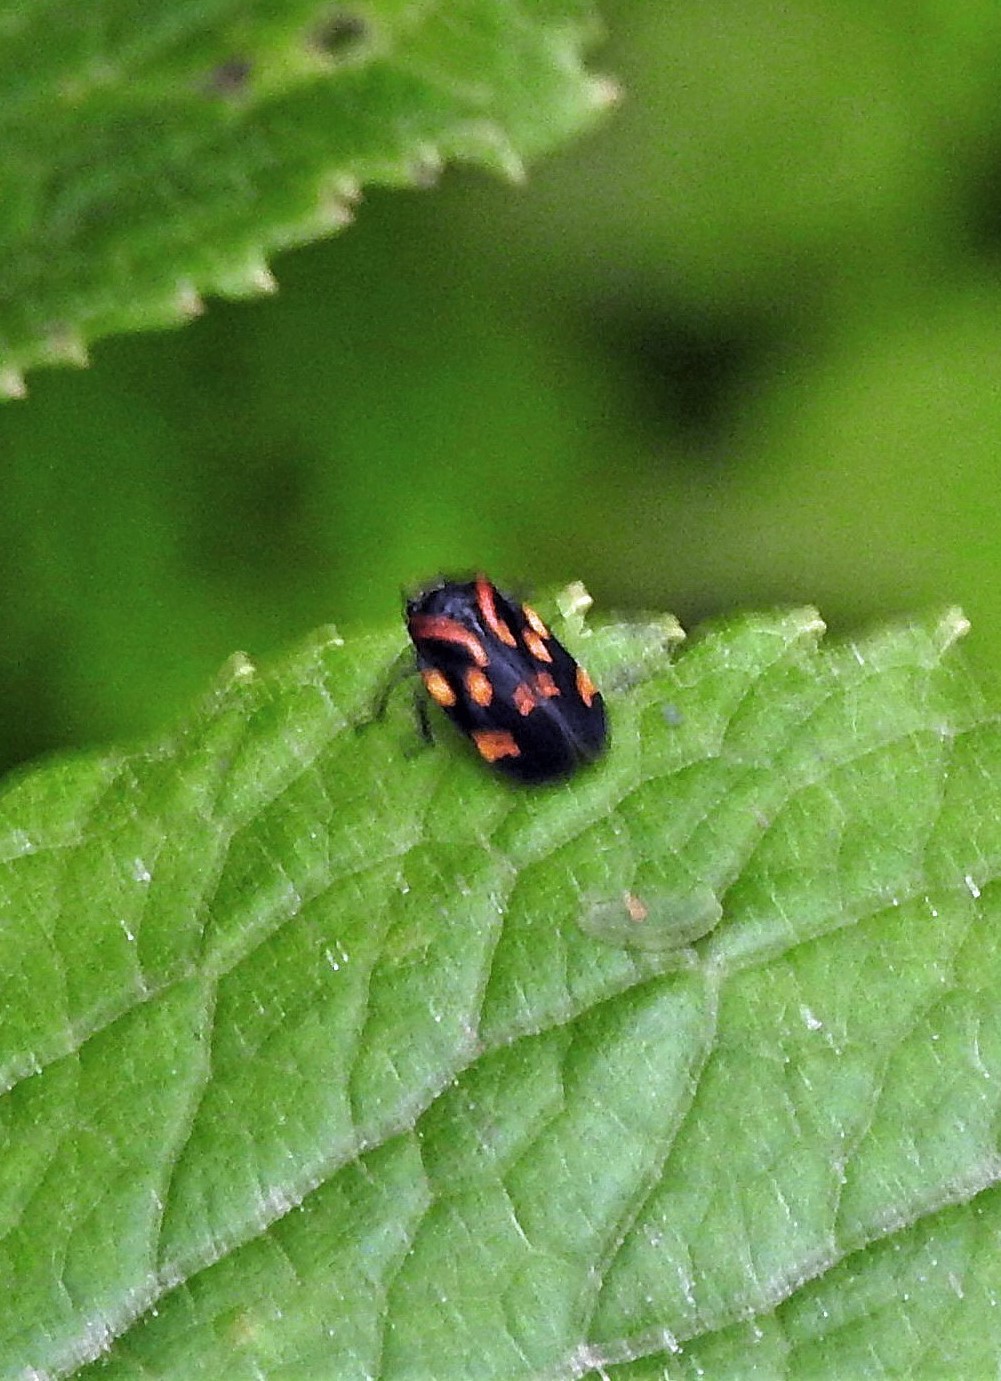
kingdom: Animalia
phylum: Arthropoda
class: Insecta
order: Hemiptera
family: Cercopidae
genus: Isozulia
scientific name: Isozulia christenseni
